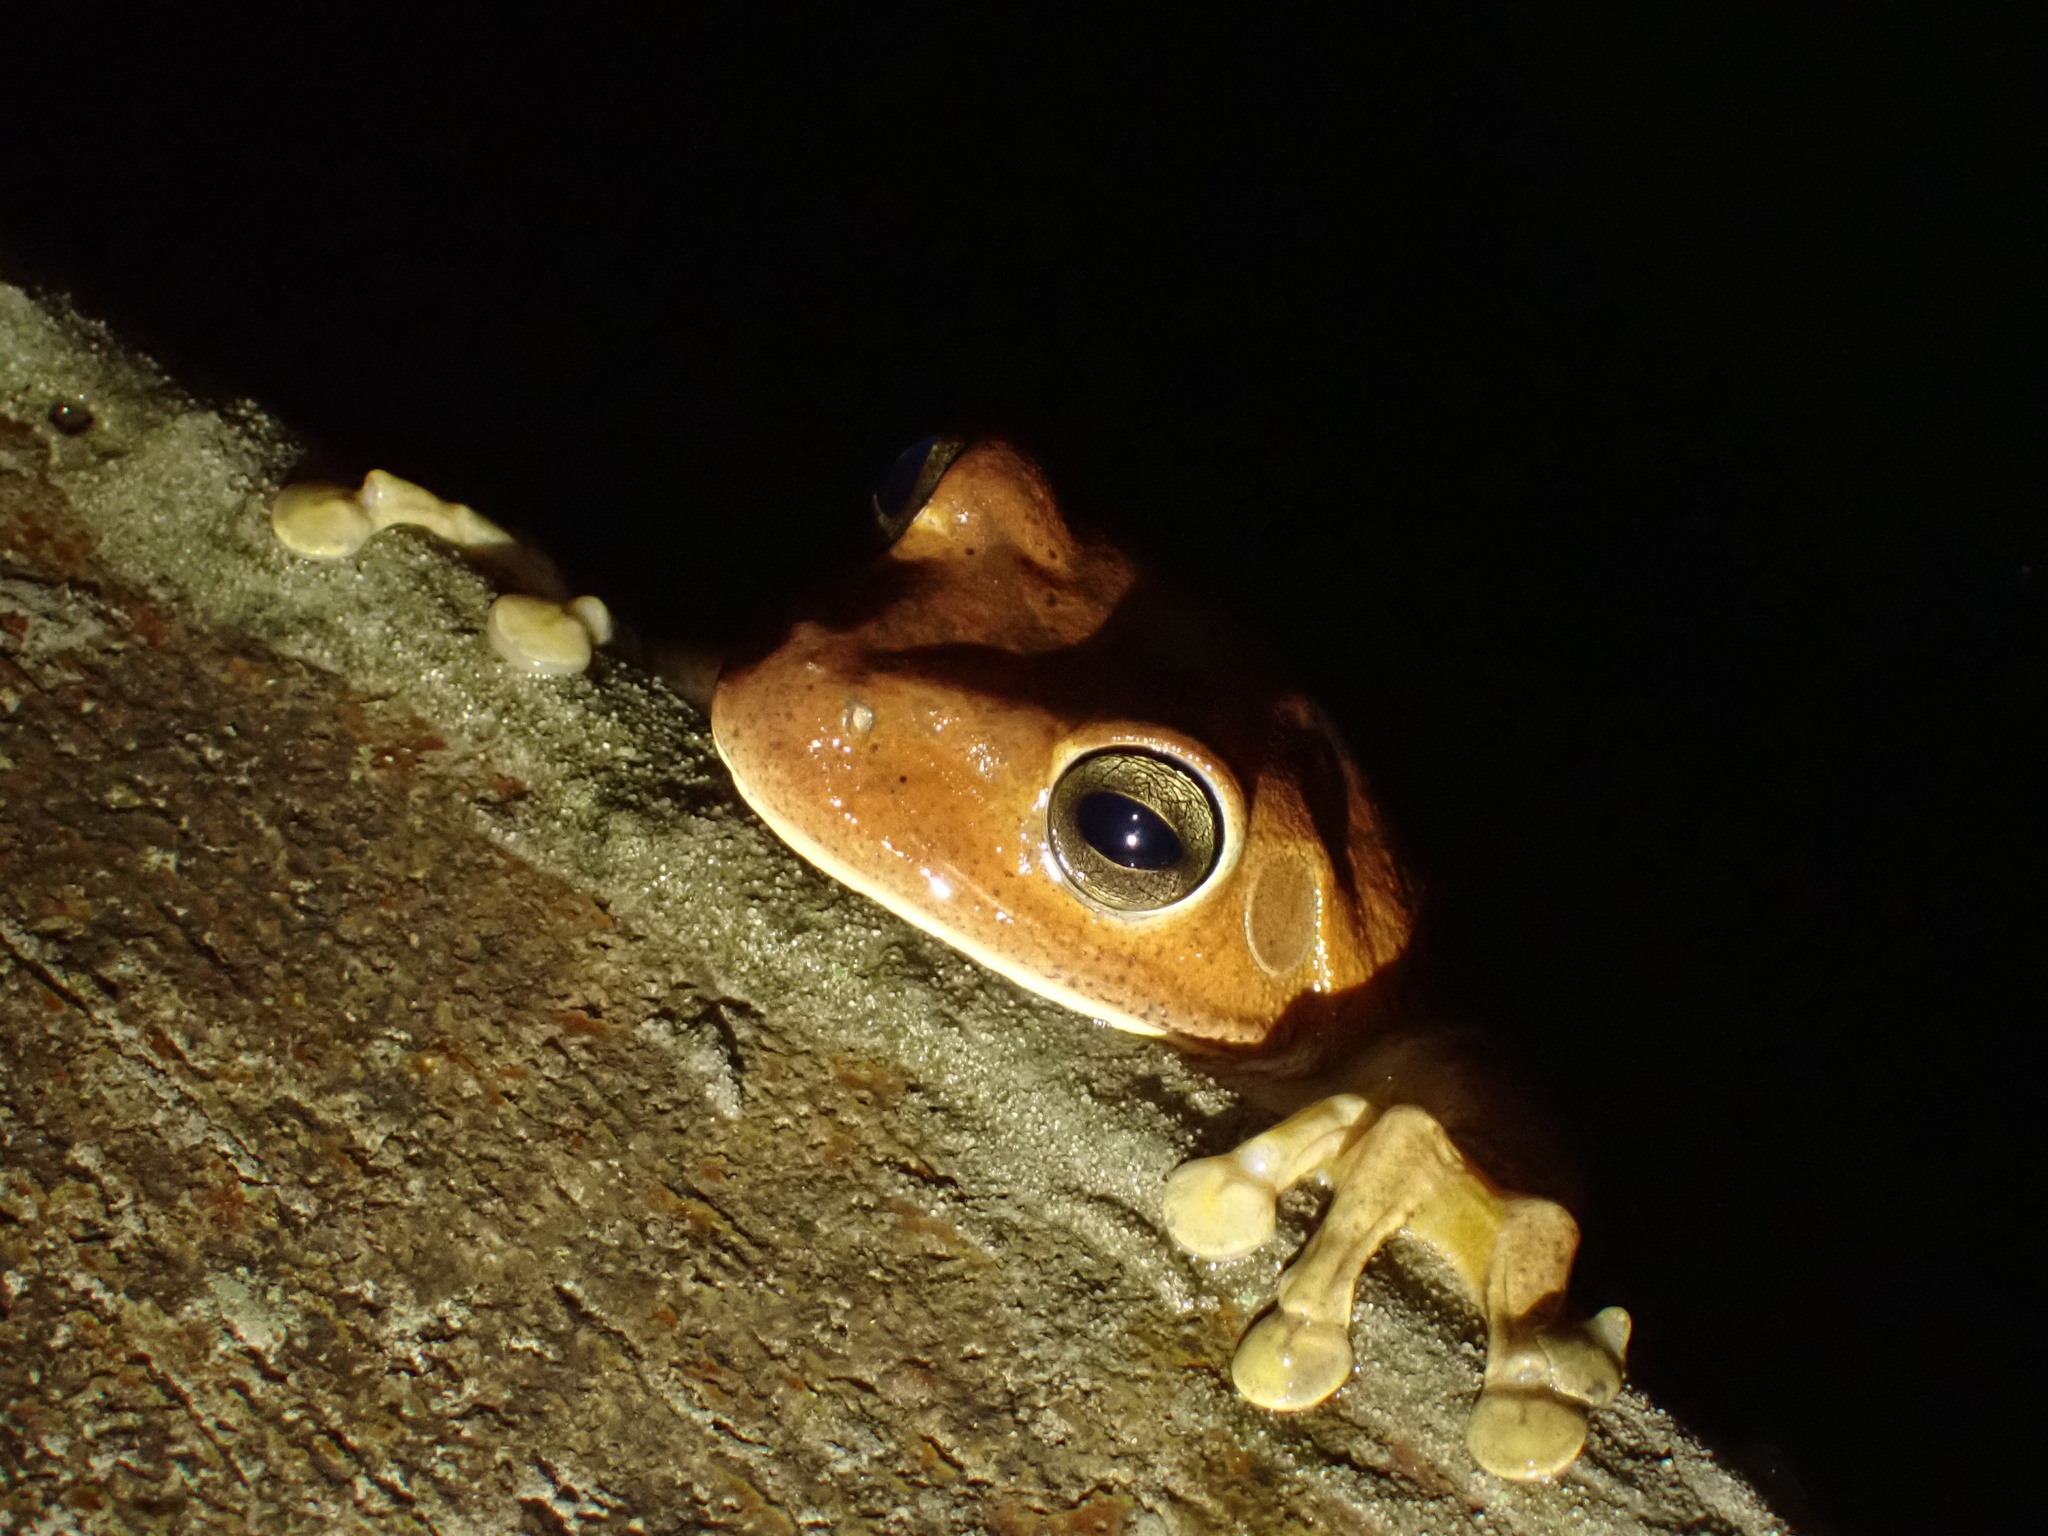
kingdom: Animalia
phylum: Chordata
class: Amphibia
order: Anura
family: Hylidae
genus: Boana
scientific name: Boana faber
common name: Blacksmith tree frog
